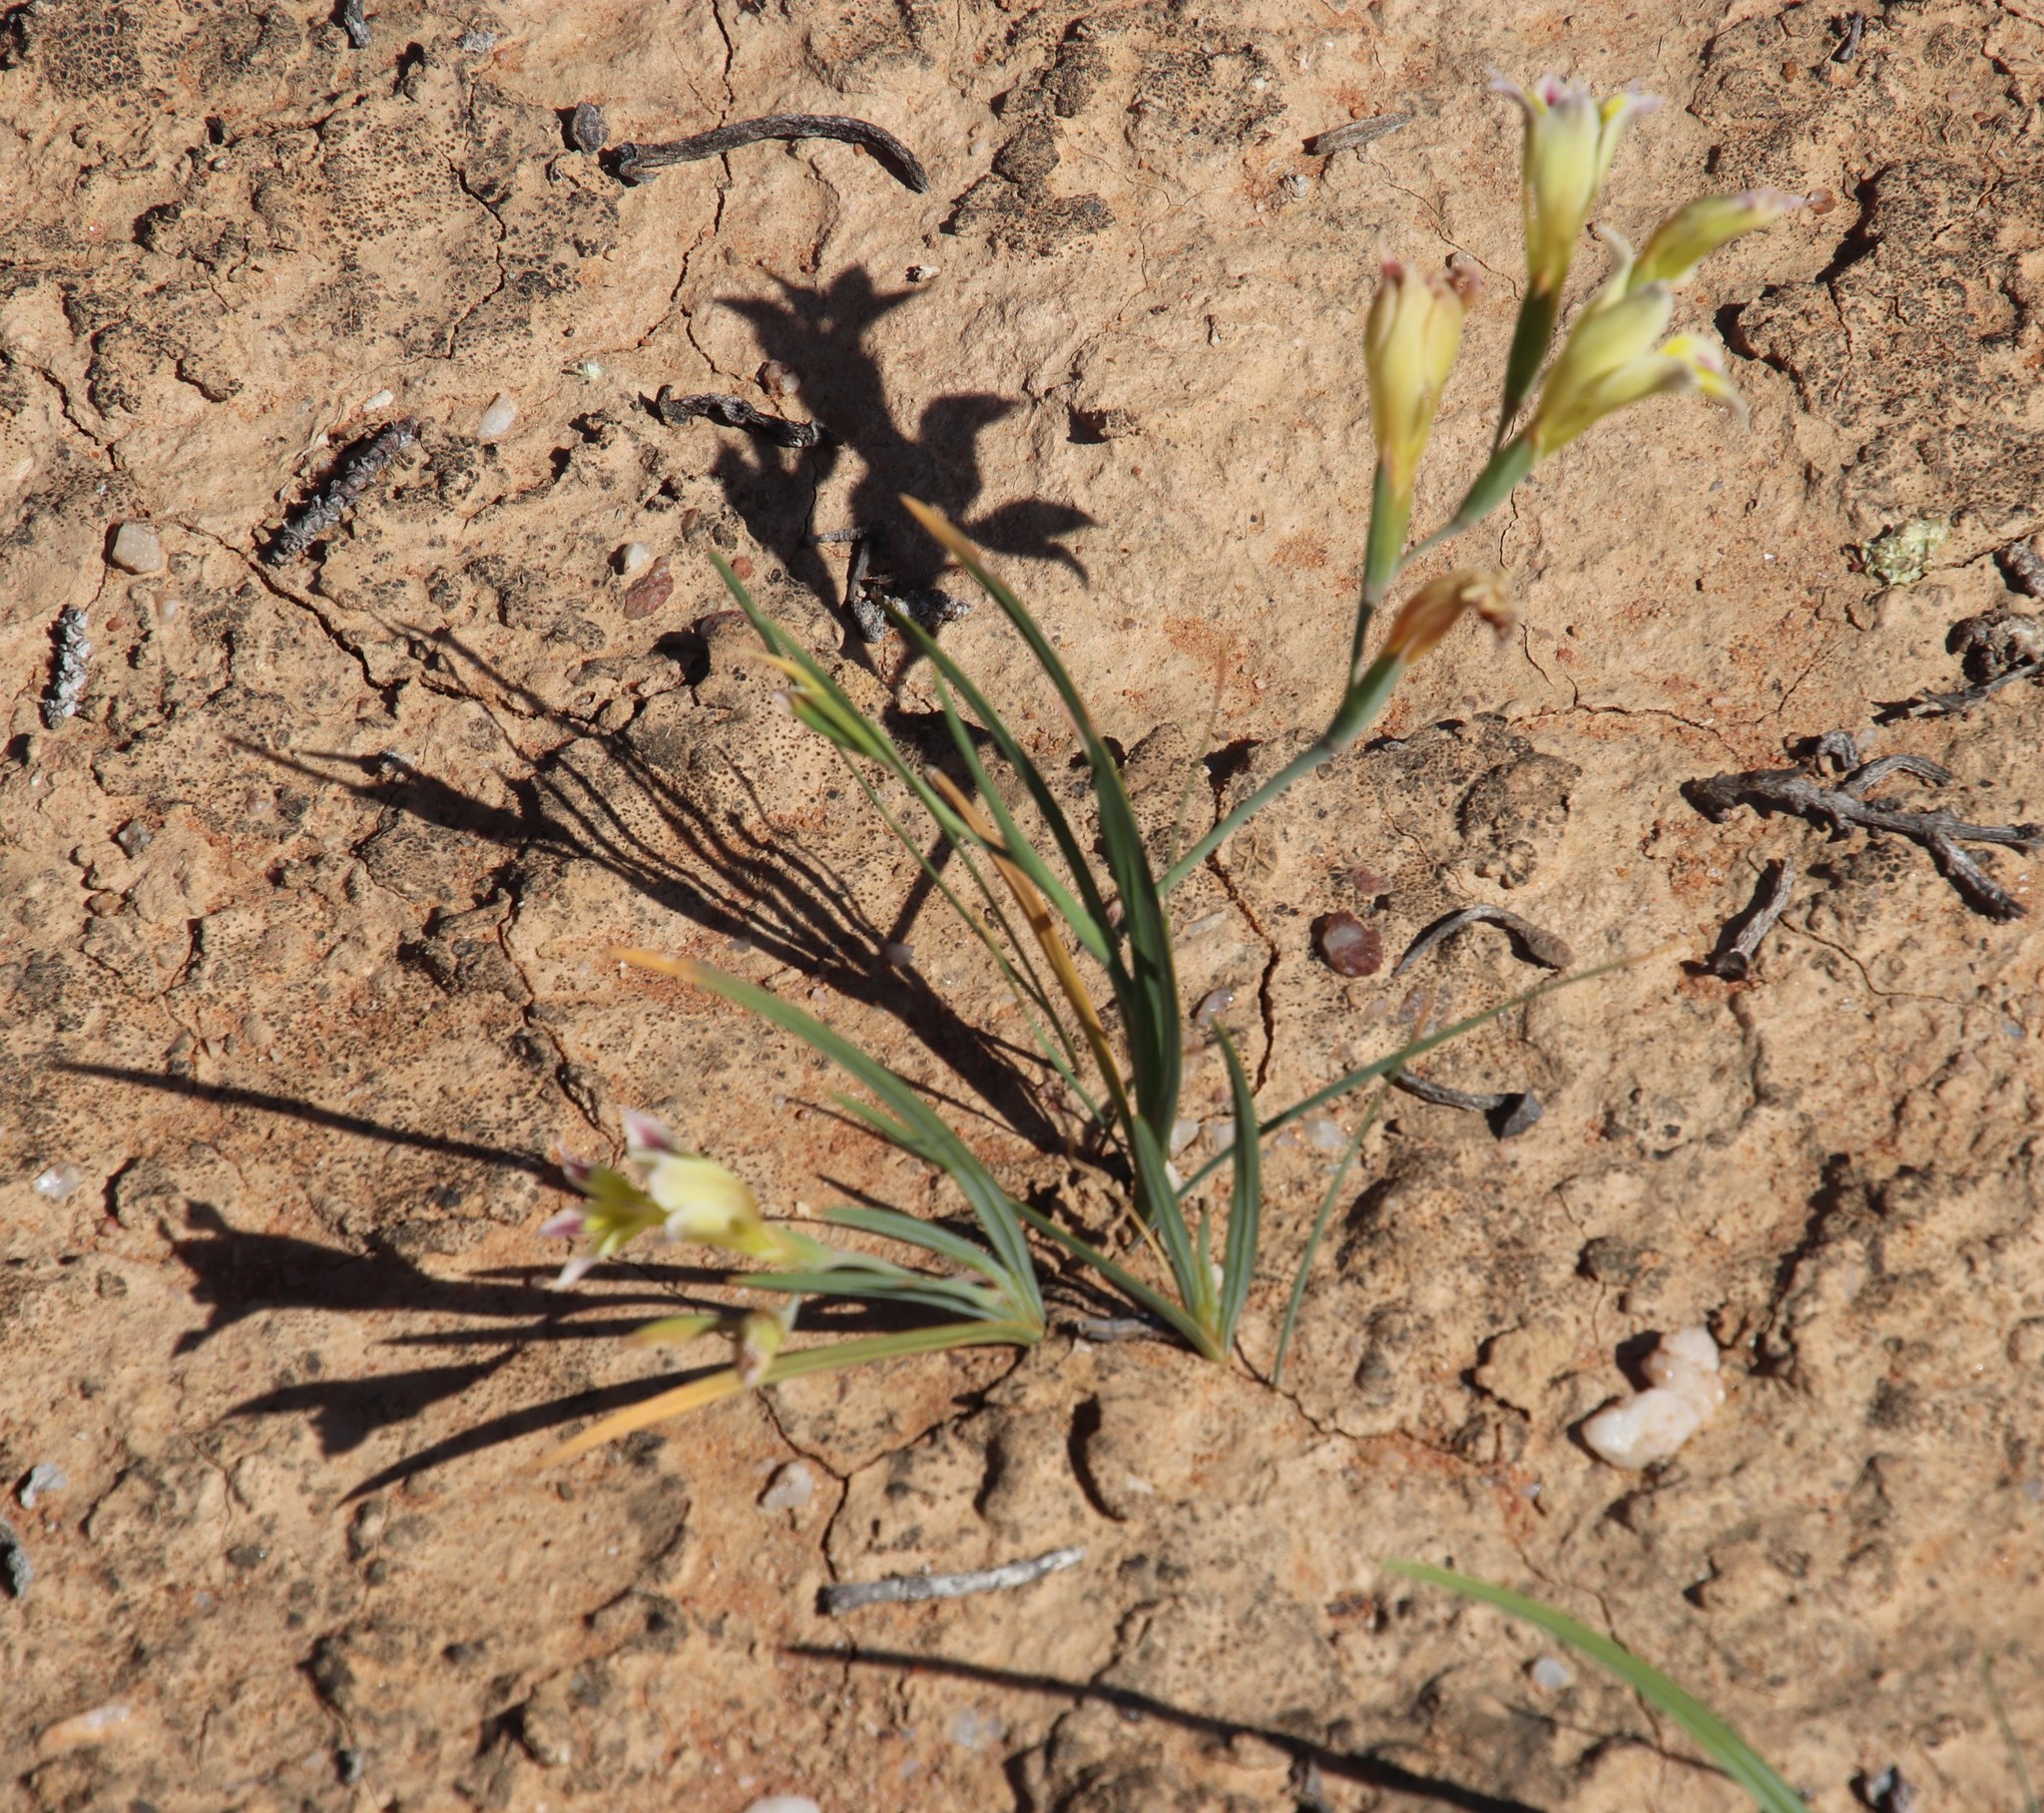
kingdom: Plantae
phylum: Tracheophyta
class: Liliopsida
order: Asparagales
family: Iridaceae
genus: Gladiolus
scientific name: Gladiolus scullyi
